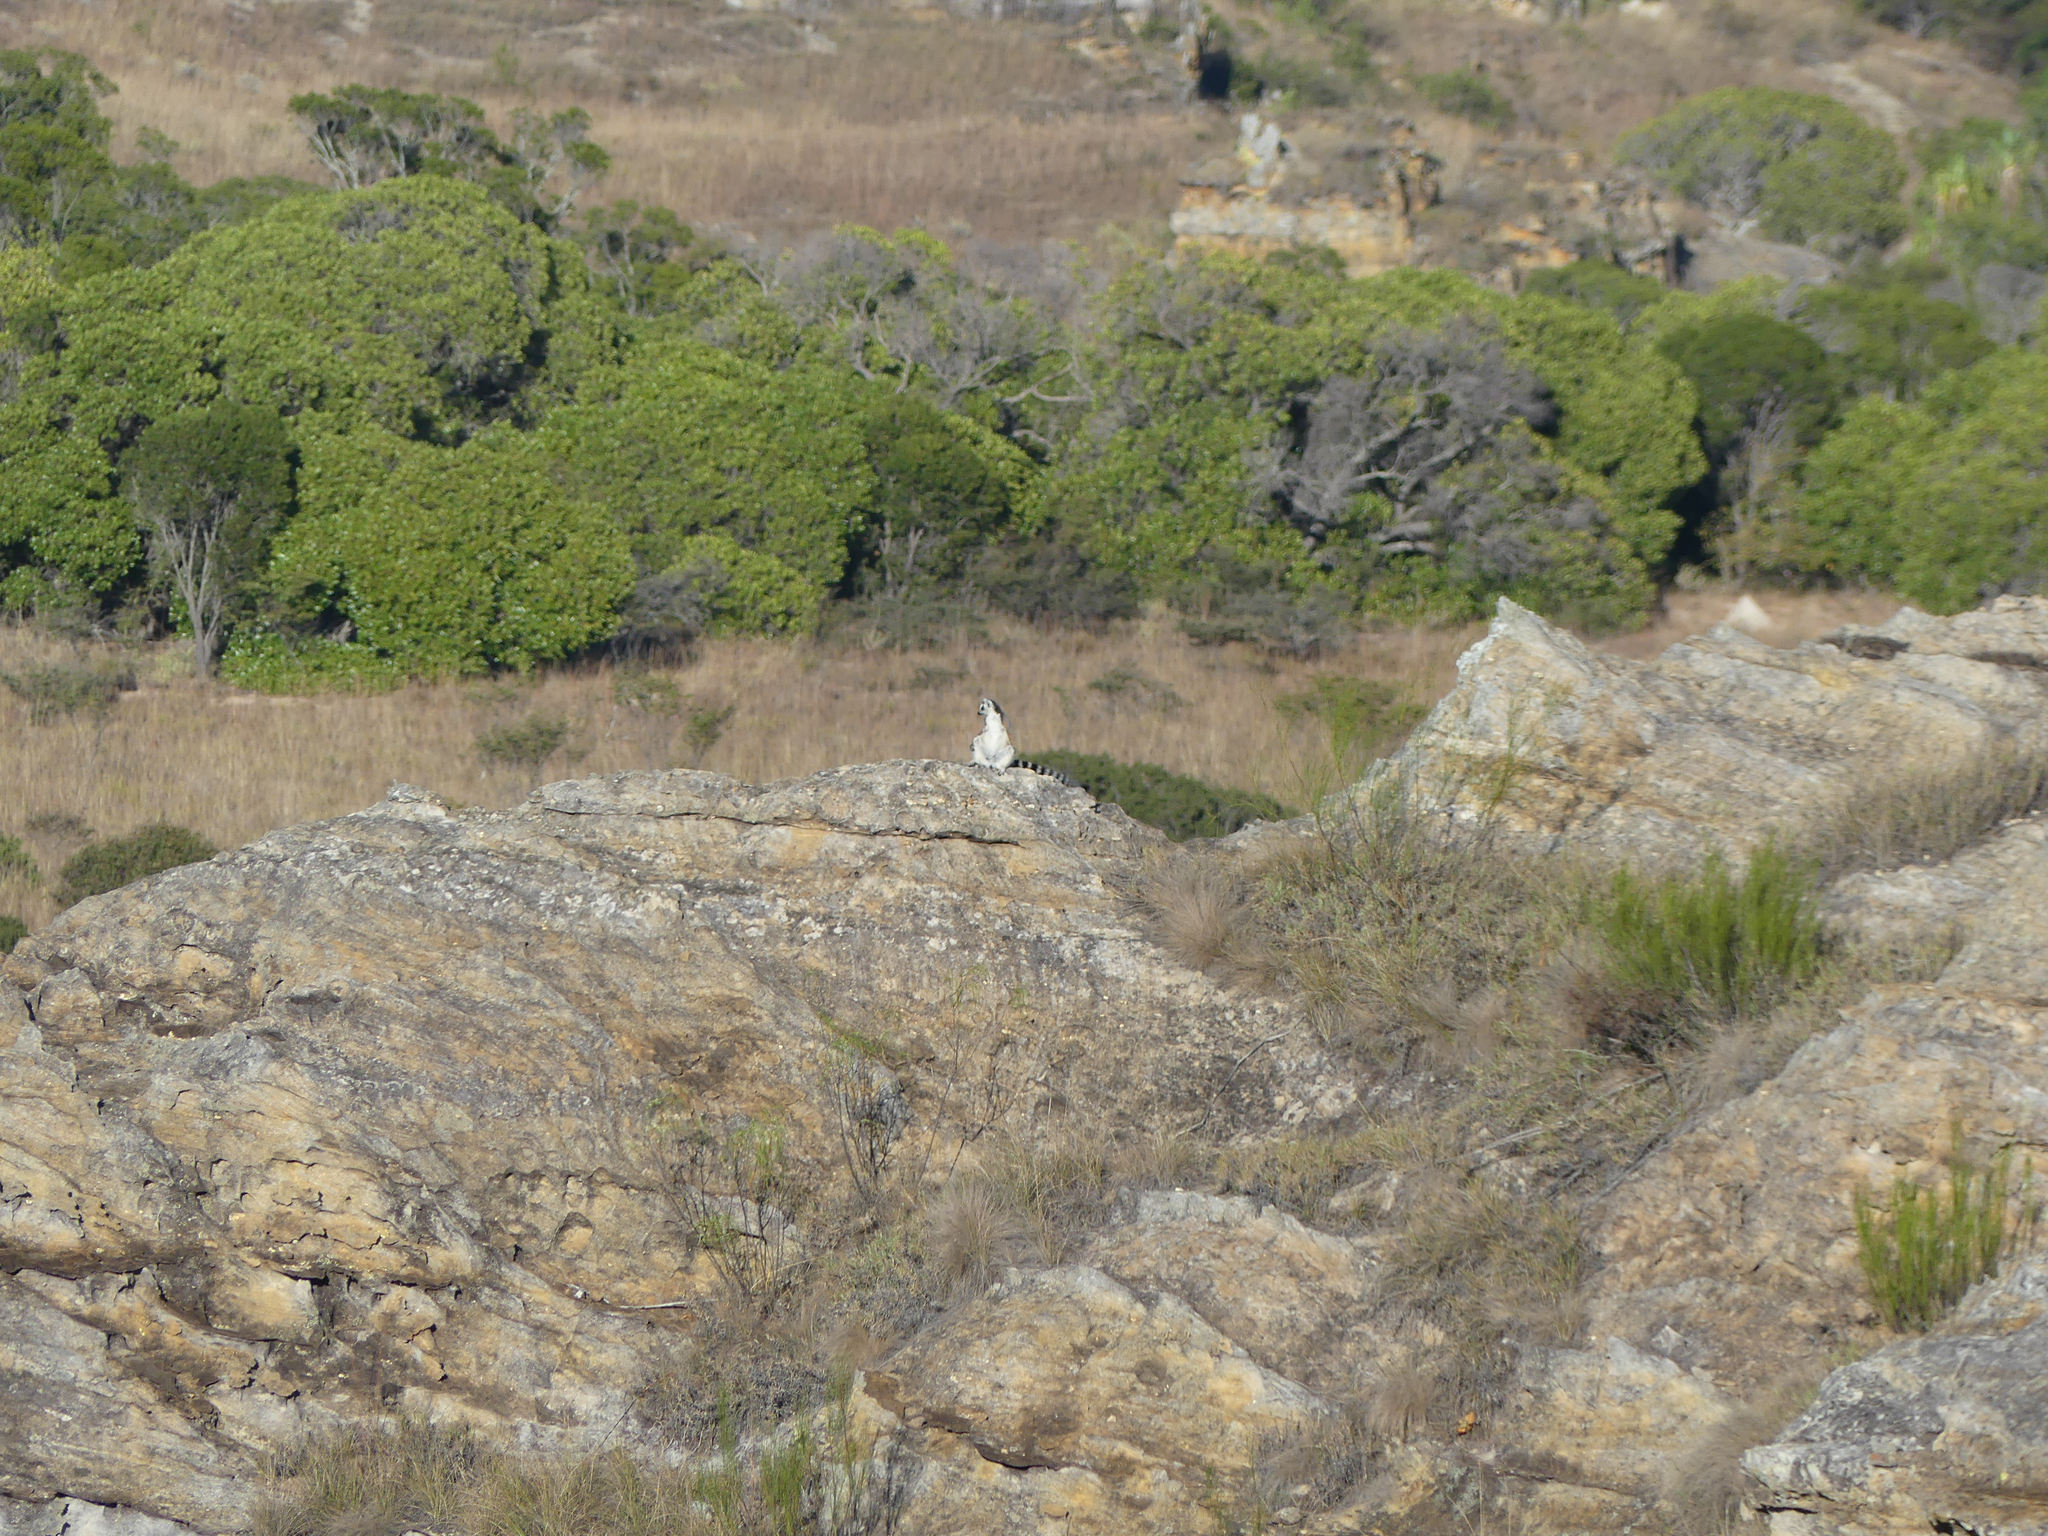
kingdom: Animalia
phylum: Chordata
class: Mammalia
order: Primates
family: Lemuridae
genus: Lemur
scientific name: Lemur catta
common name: Ring-tailed lemur
